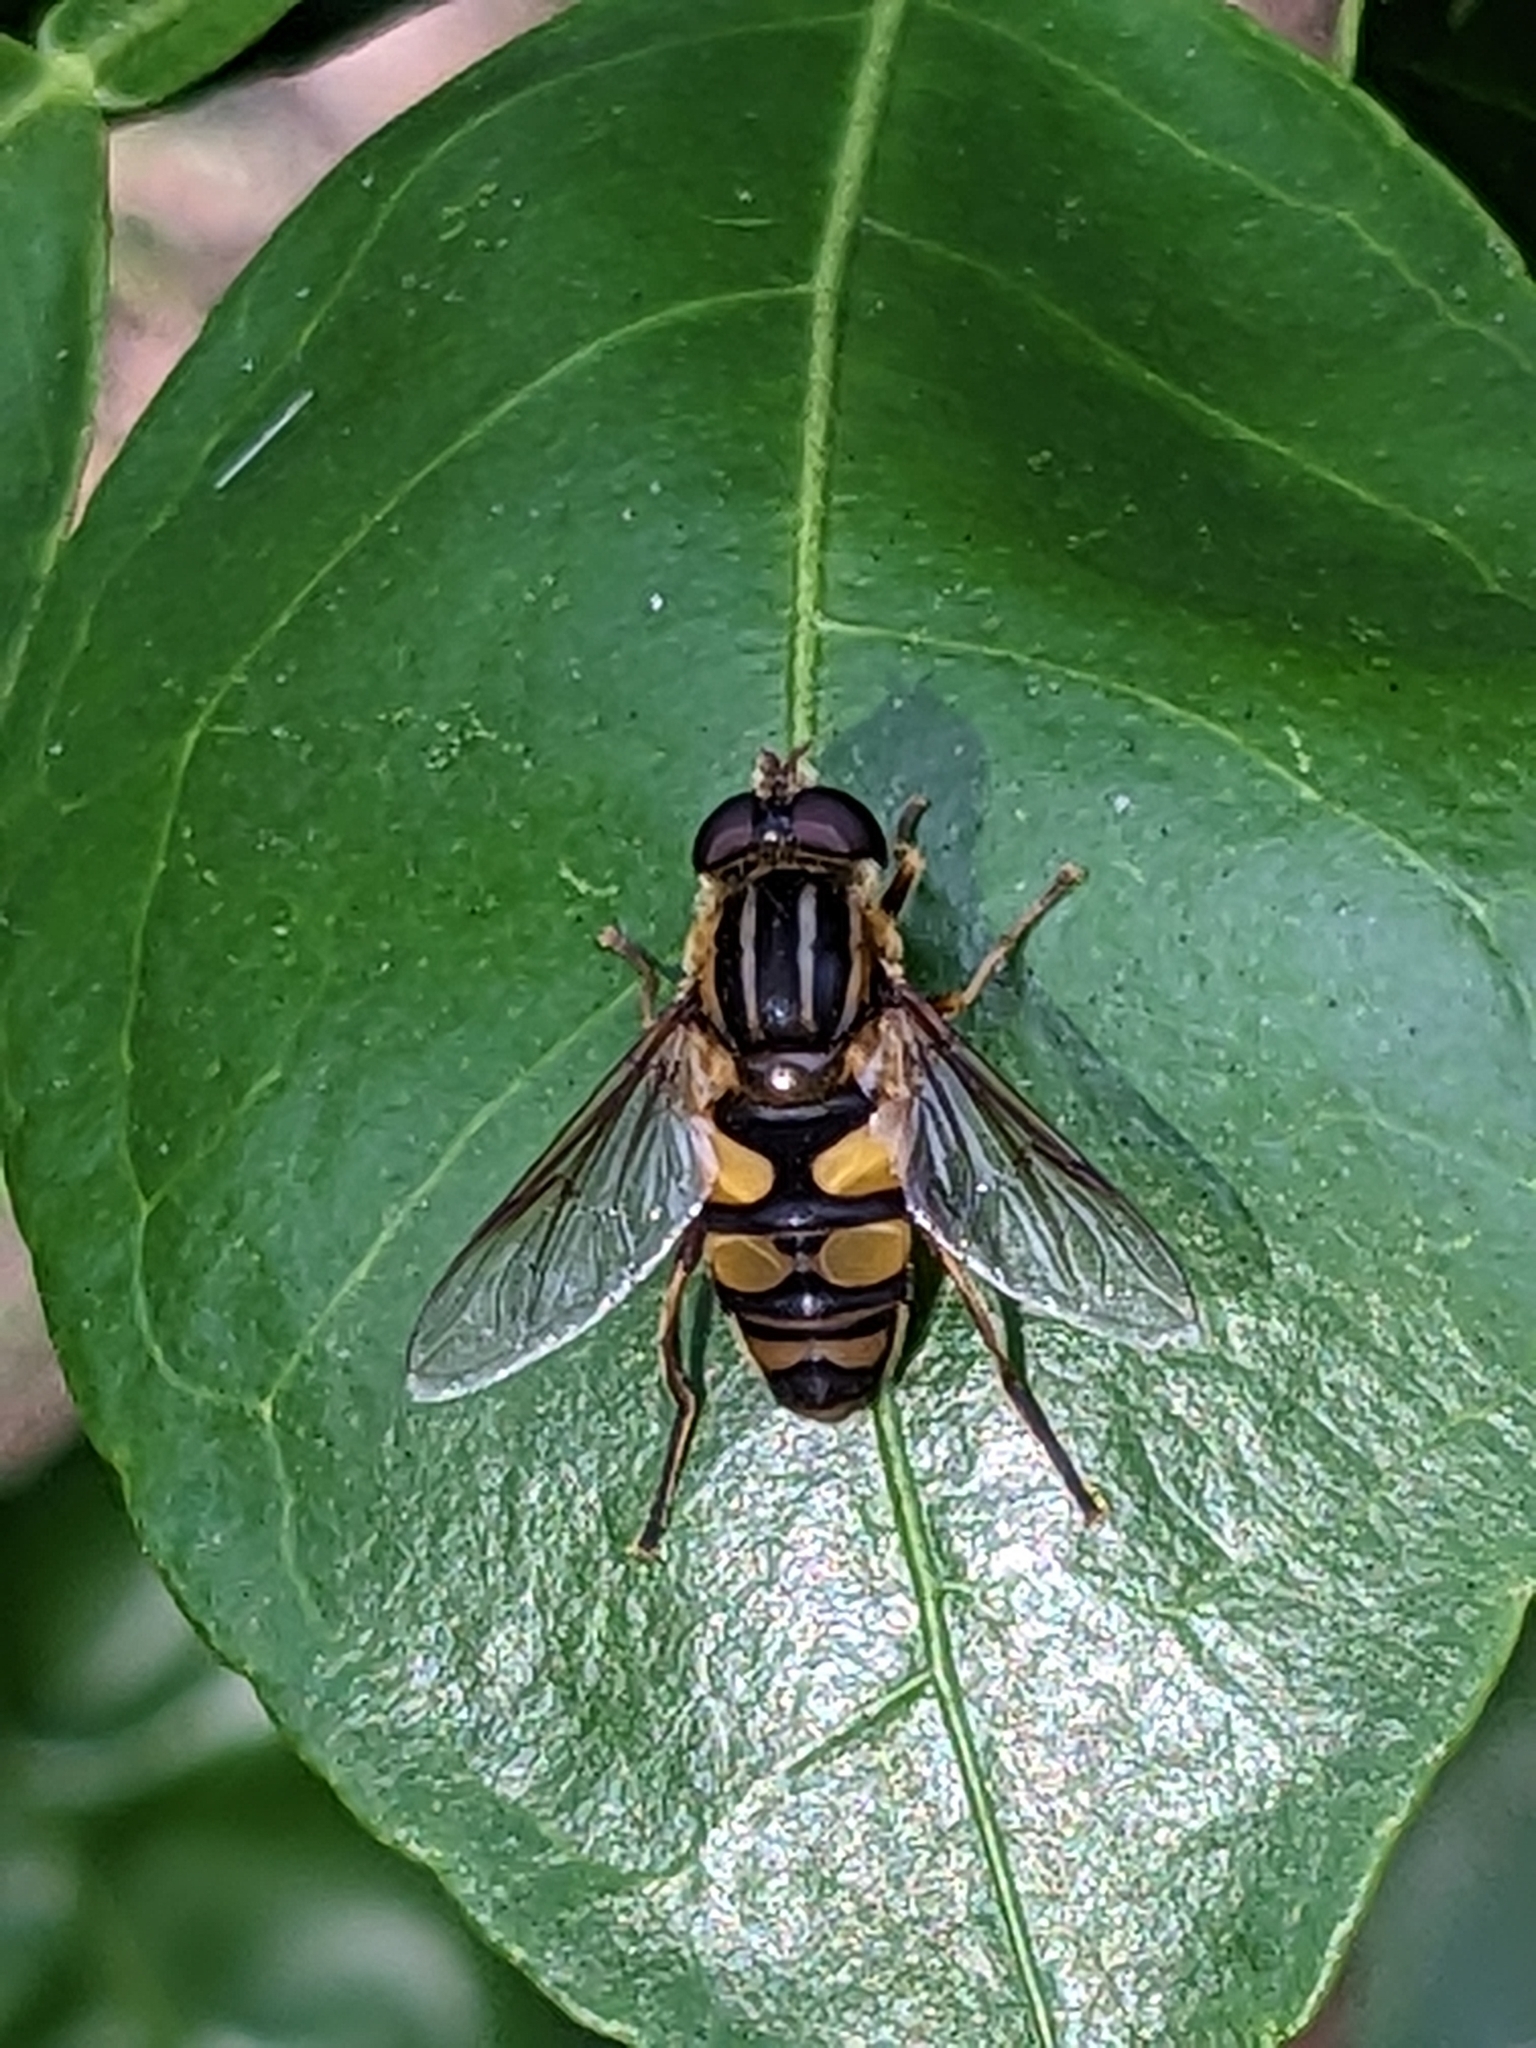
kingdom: Animalia
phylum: Arthropoda
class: Insecta
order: Diptera
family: Syrphidae
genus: Helophilus
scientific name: Helophilus fasciatus
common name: Narrow-headed marsh fly
